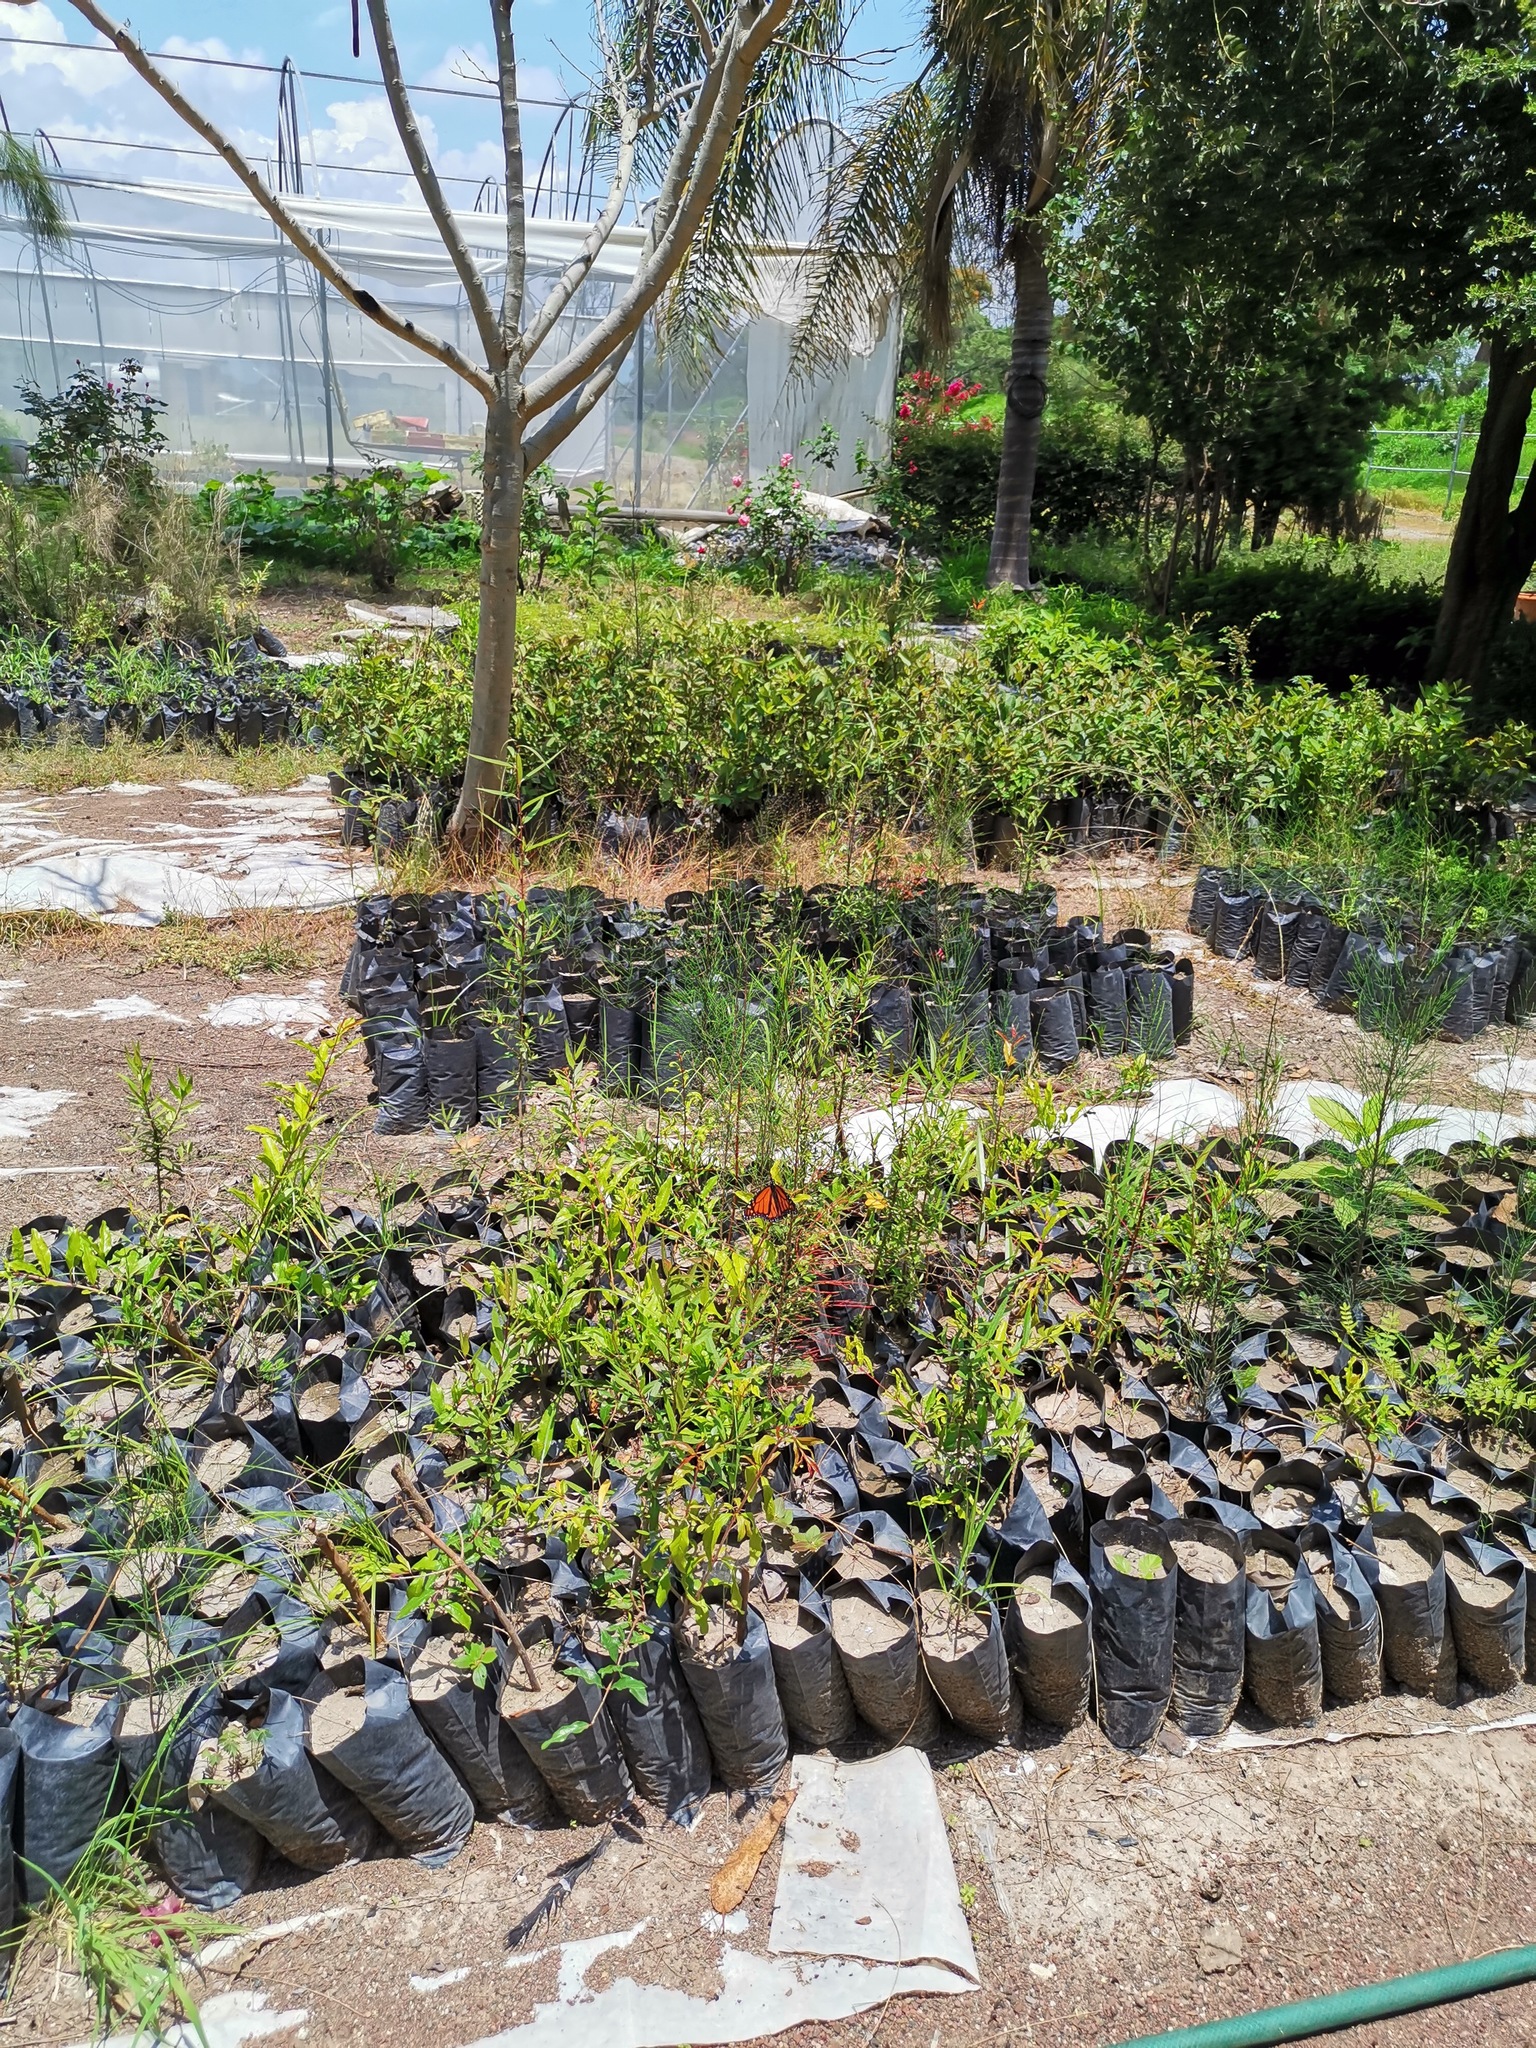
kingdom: Animalia
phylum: Arthropoda
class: Insecta
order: Lepidoptera
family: Nymphalidae
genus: Danaus
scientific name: Danaus plexippus
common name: Monarch
